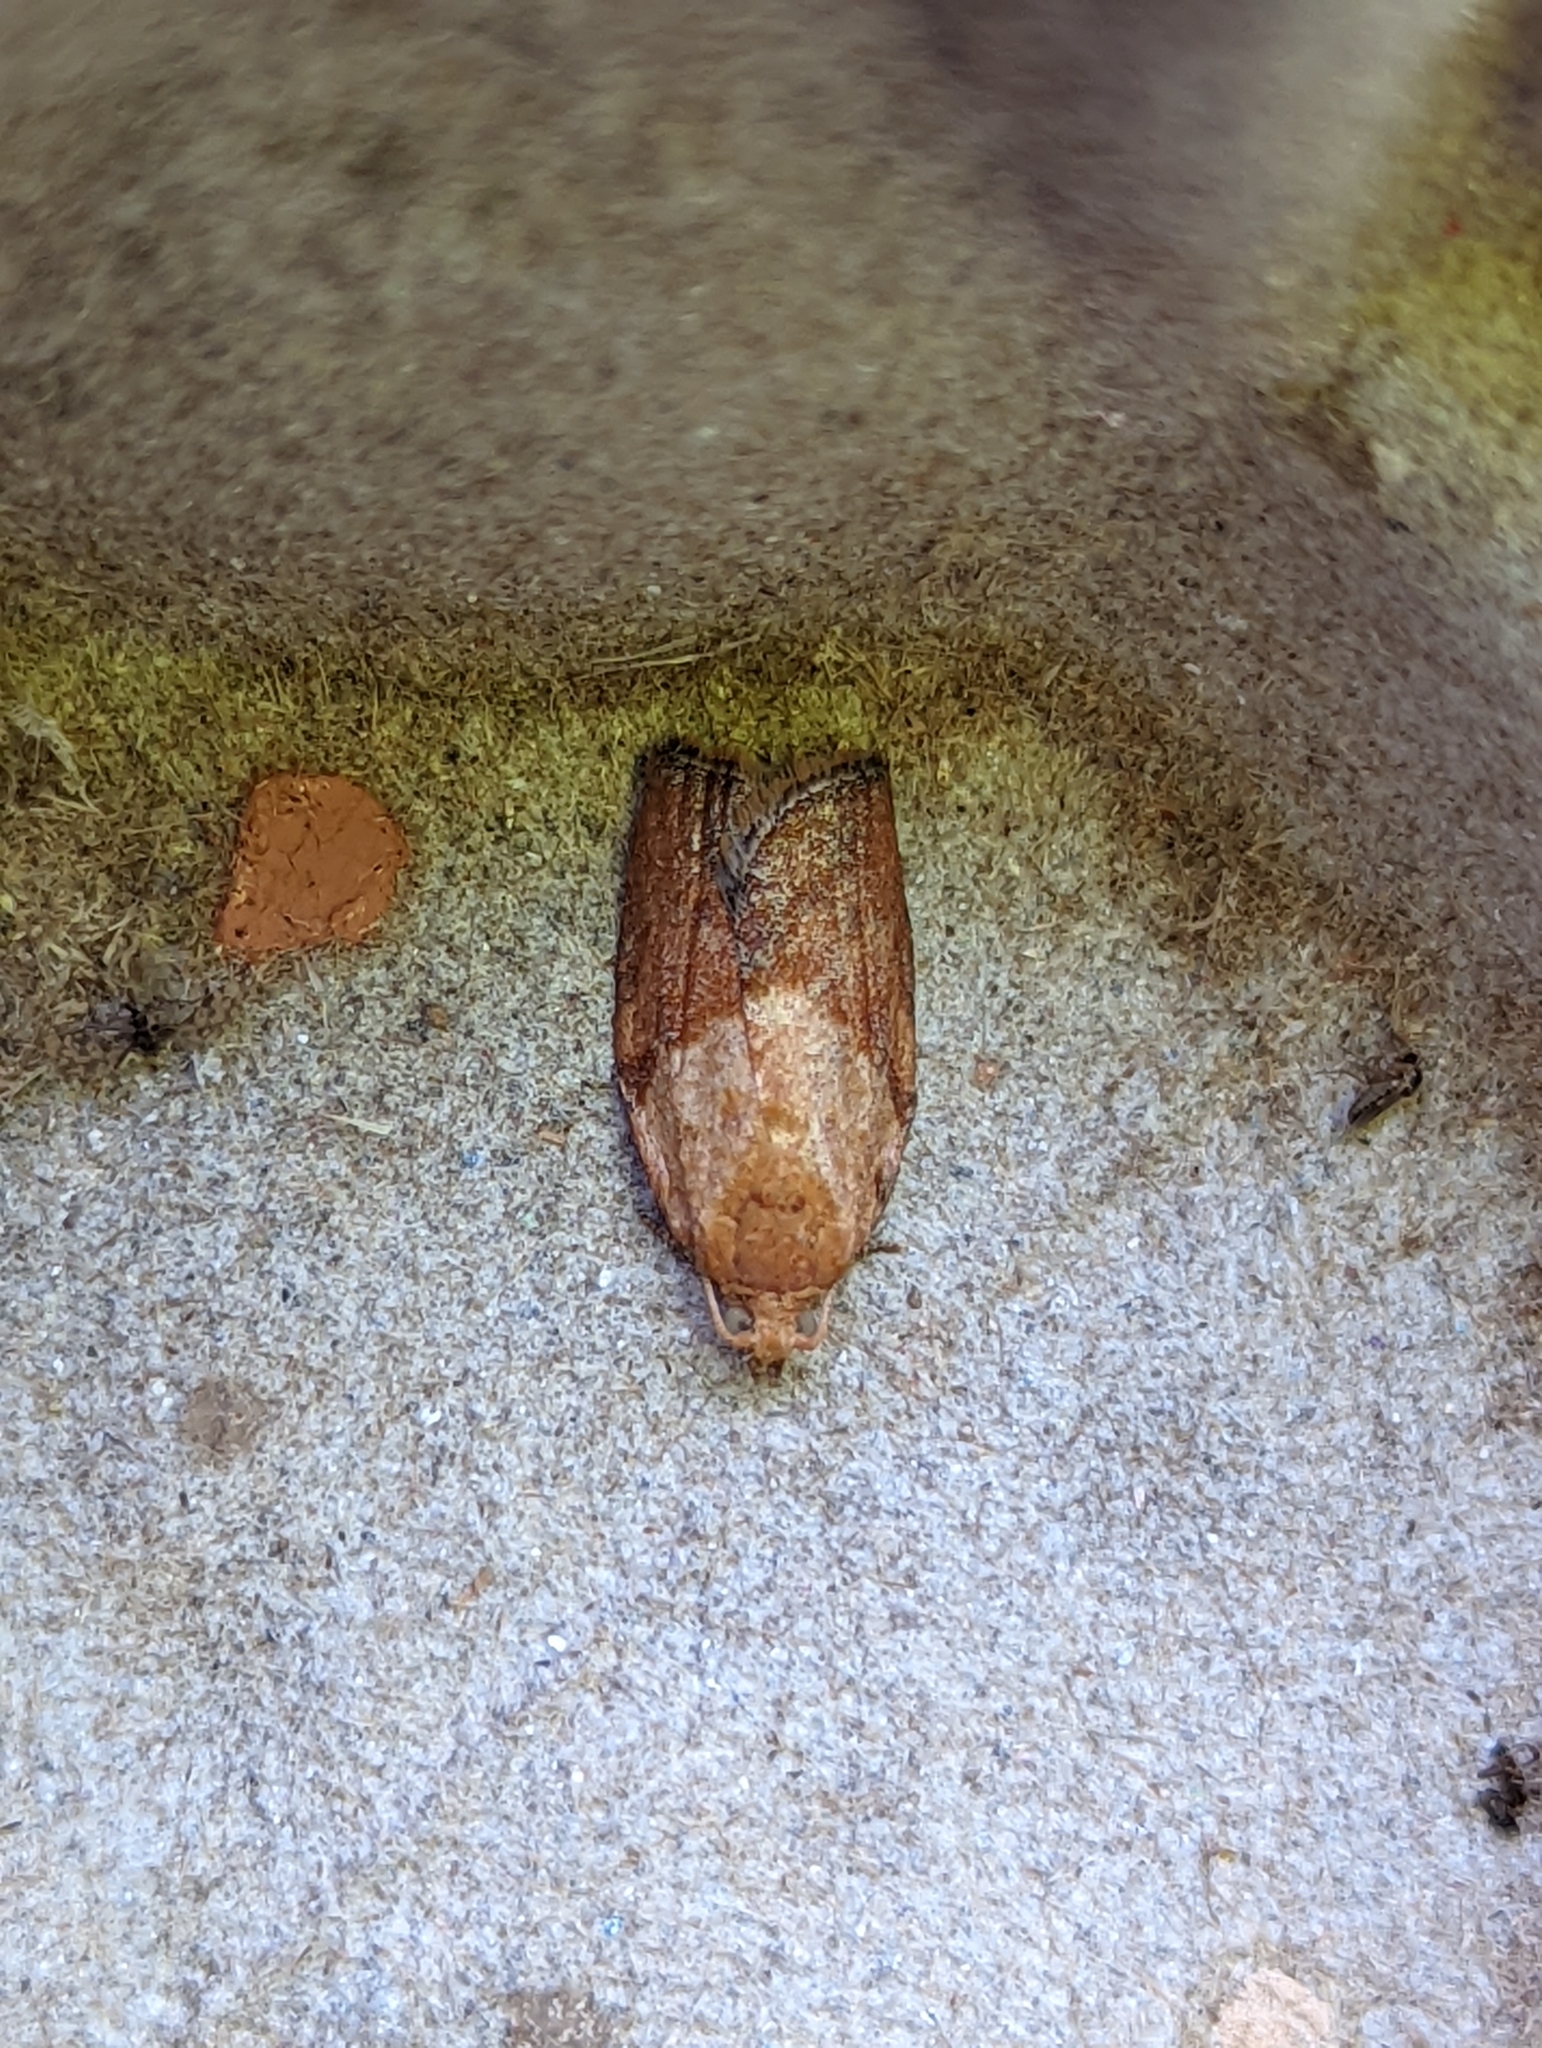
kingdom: Animalia
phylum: Arthropoda
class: Insecta
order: Lepidoptera
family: Tortricidae
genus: Epiphyas
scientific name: Epiphyas postvittana
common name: Light brown apple moth
